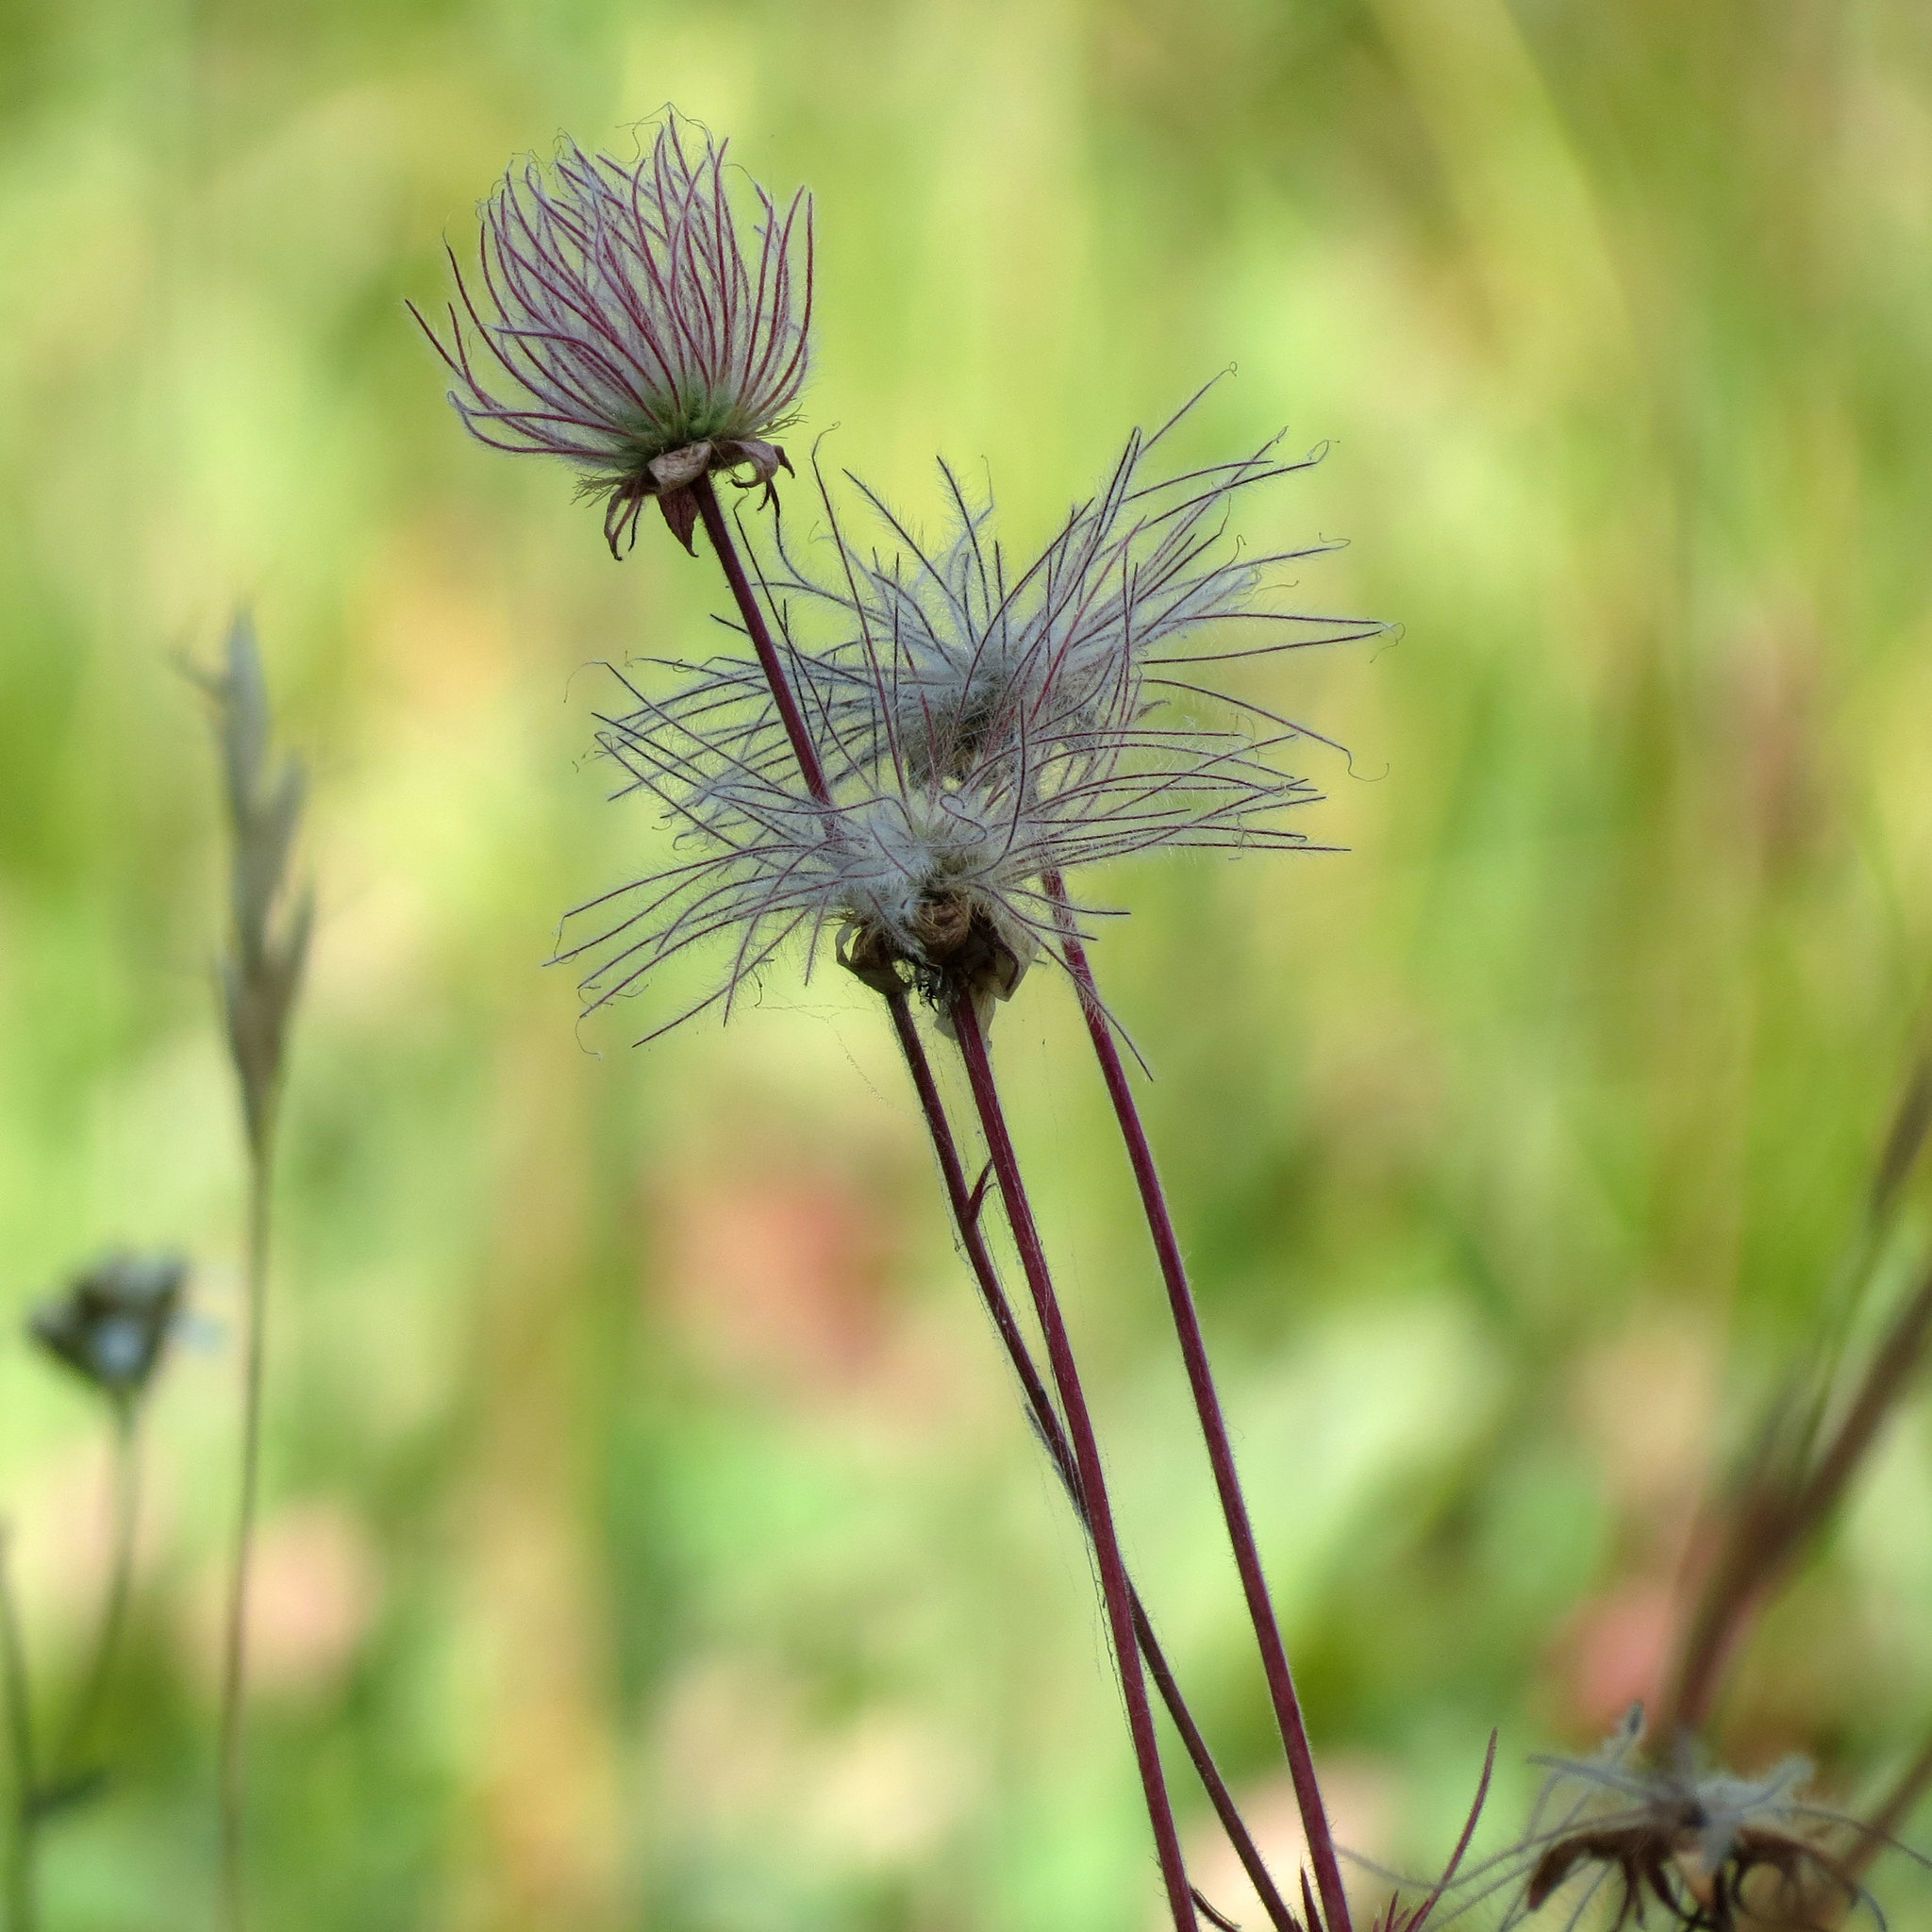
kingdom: Plantae
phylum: Tracheophyta
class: Magnoliopsida
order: Rosales
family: Rosaceae
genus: Geum
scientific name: Geum triflorum
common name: Old man's whiskers
